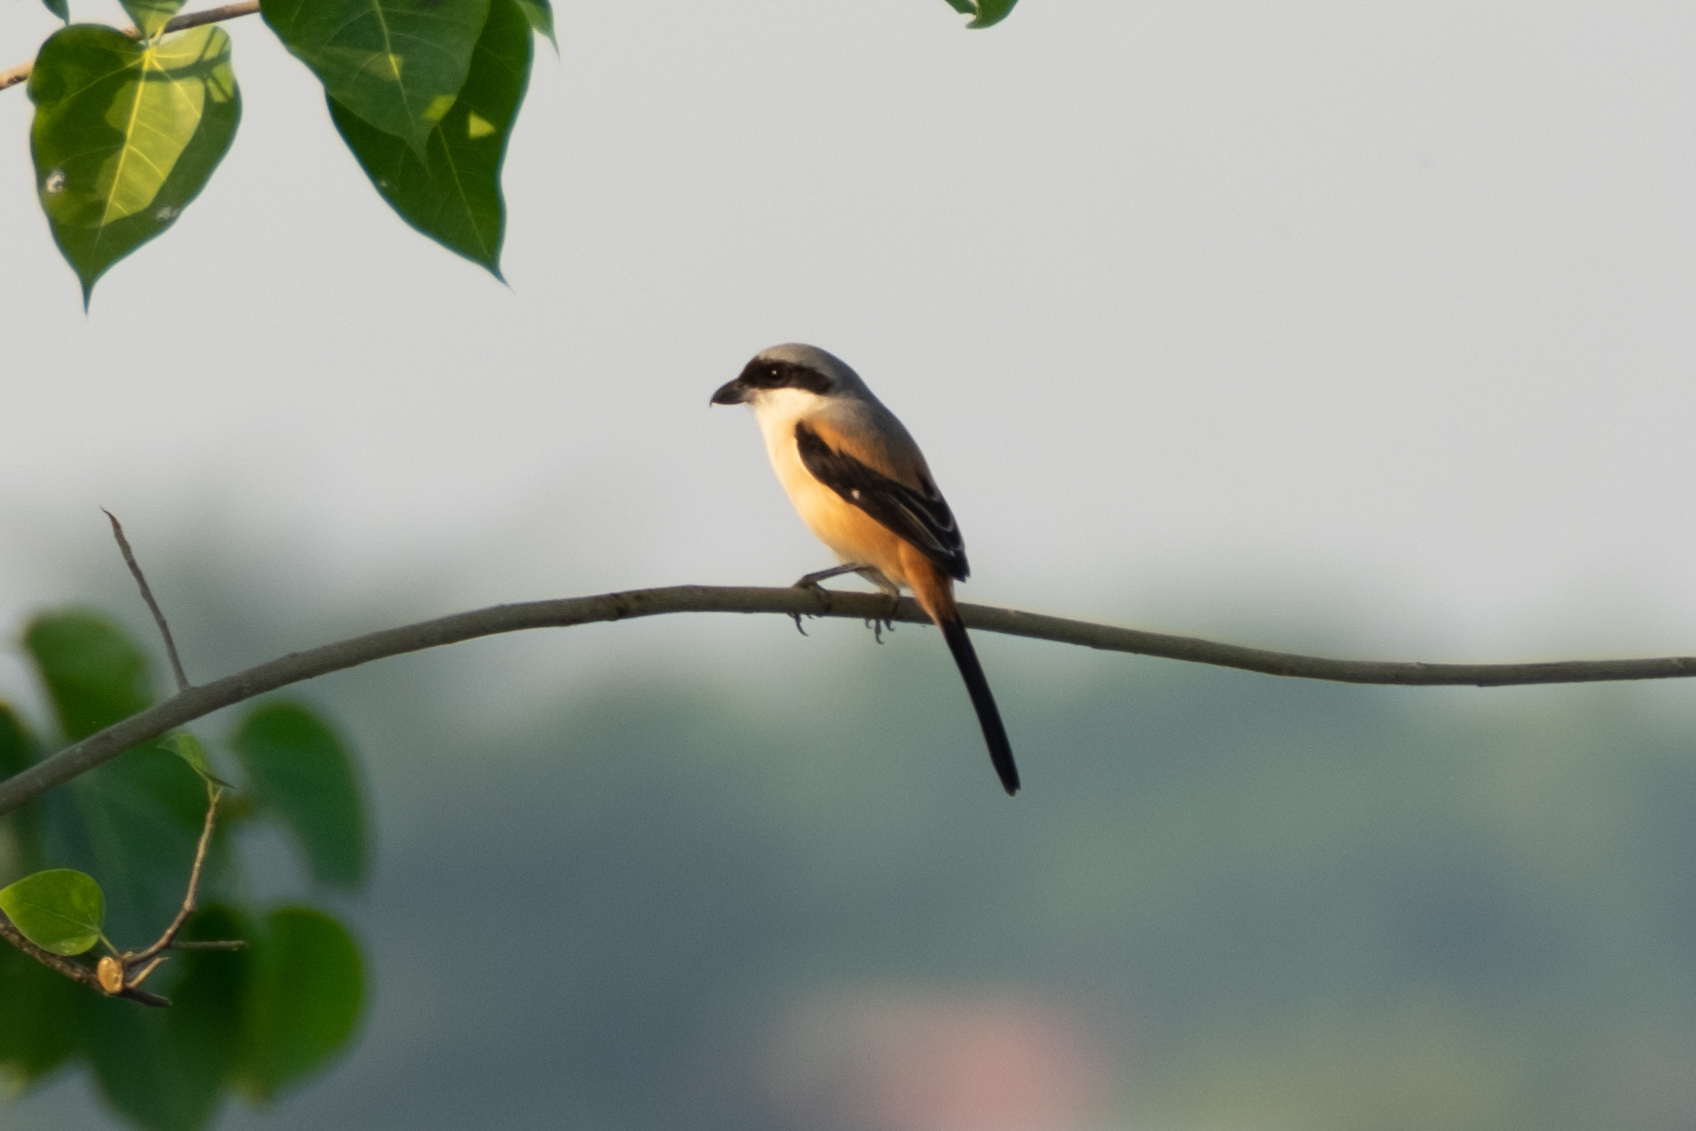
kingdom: Animalia
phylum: Chordata
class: Aves
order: Passeriformes
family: Laniidae
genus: Lanius
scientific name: Lanius schach
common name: Long-tailed shrike
